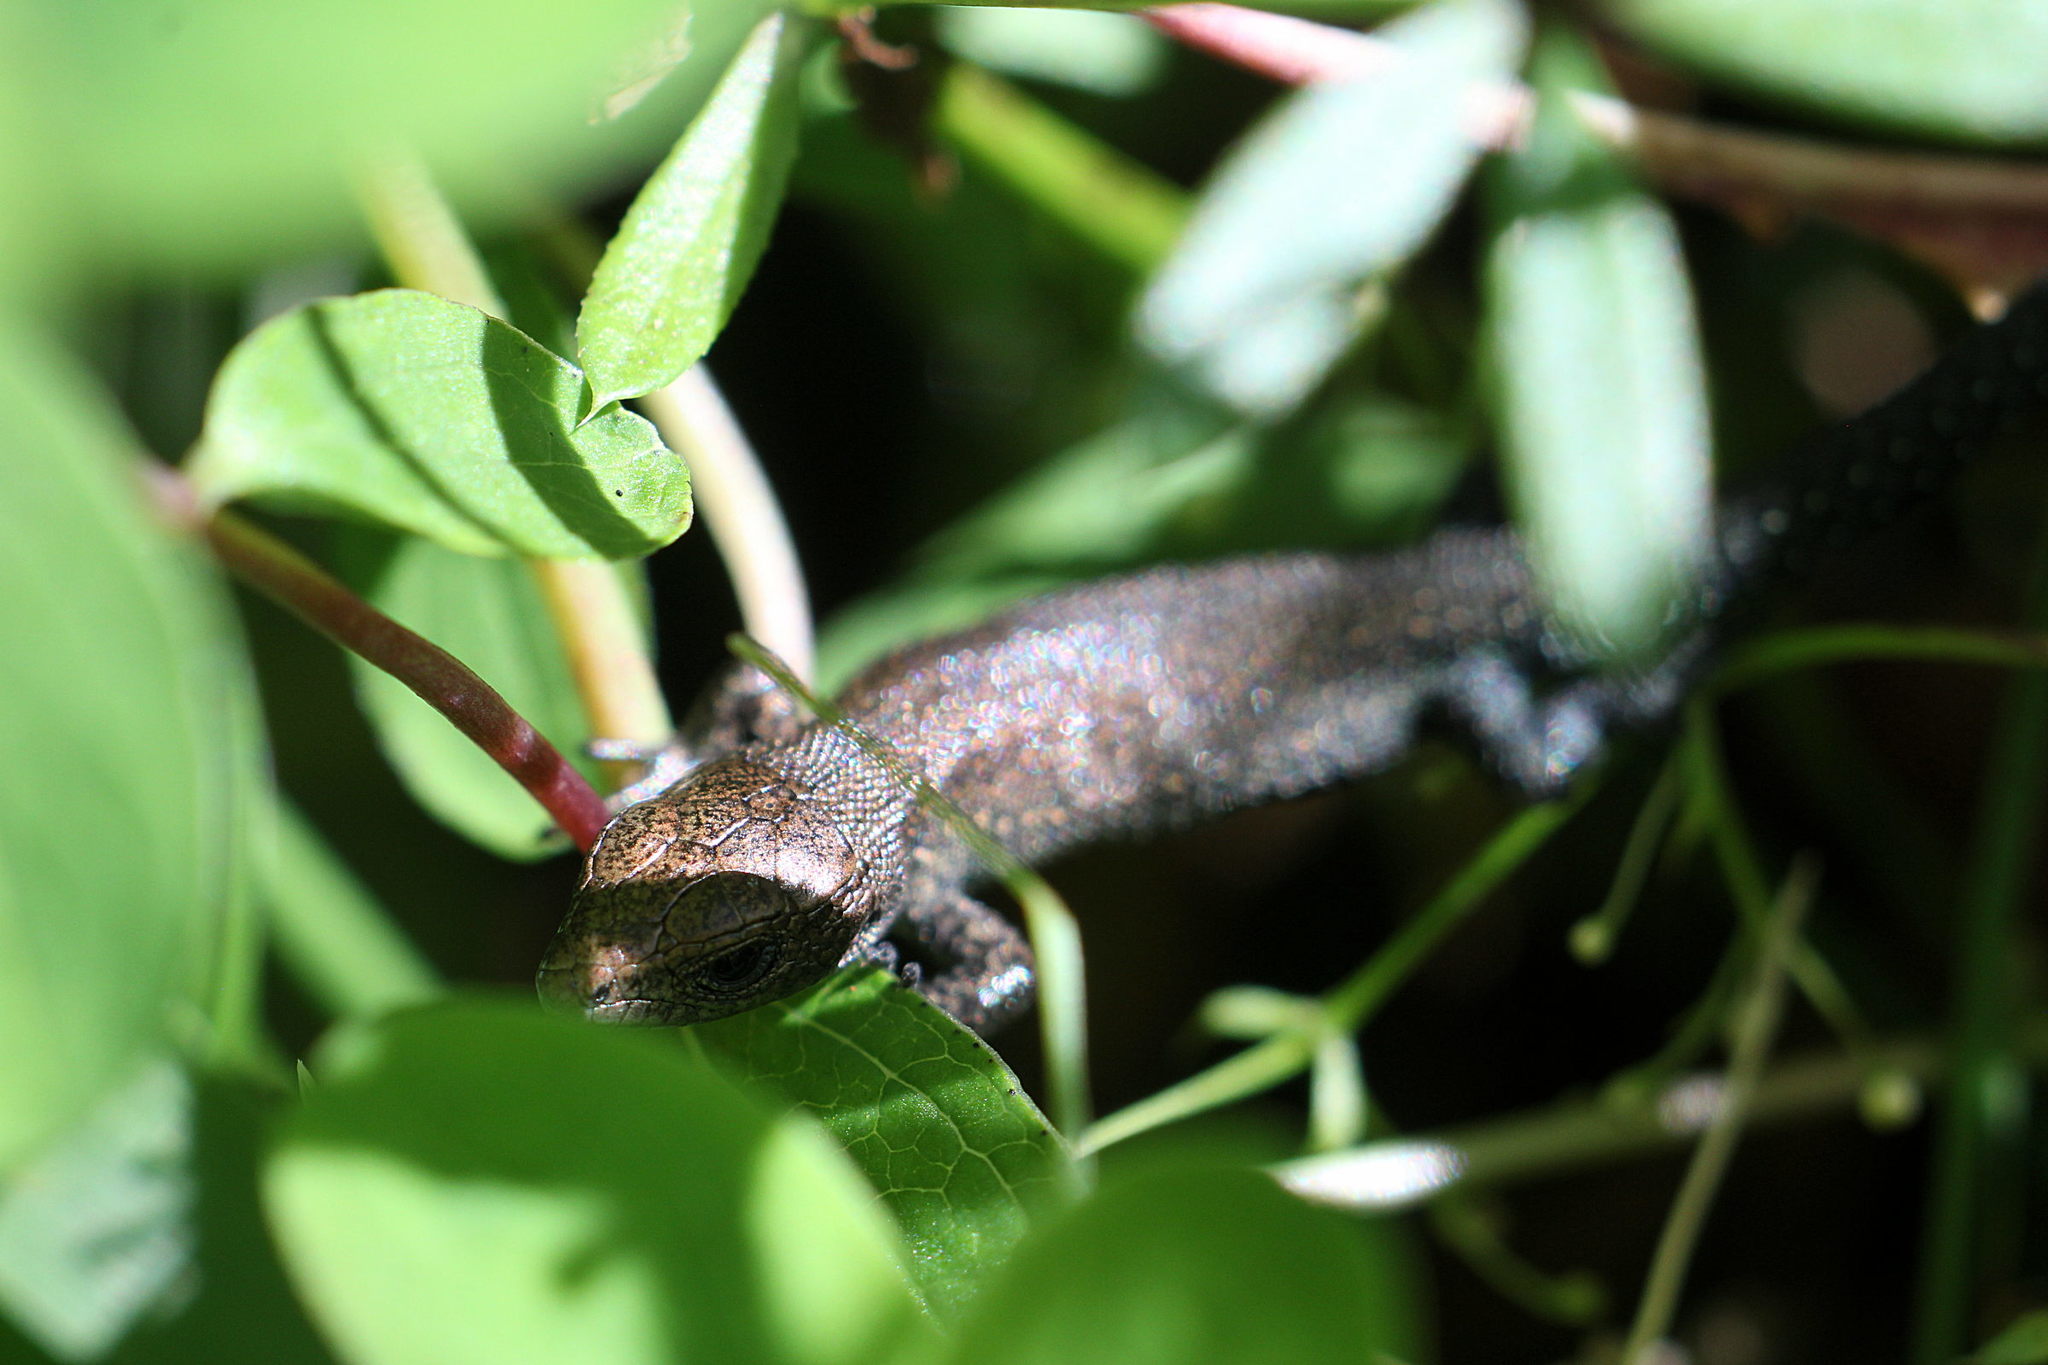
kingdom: Animalia
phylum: Chordata
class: Squamata
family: Lacertidae
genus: Zootoca
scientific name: Zootoca vivipara
